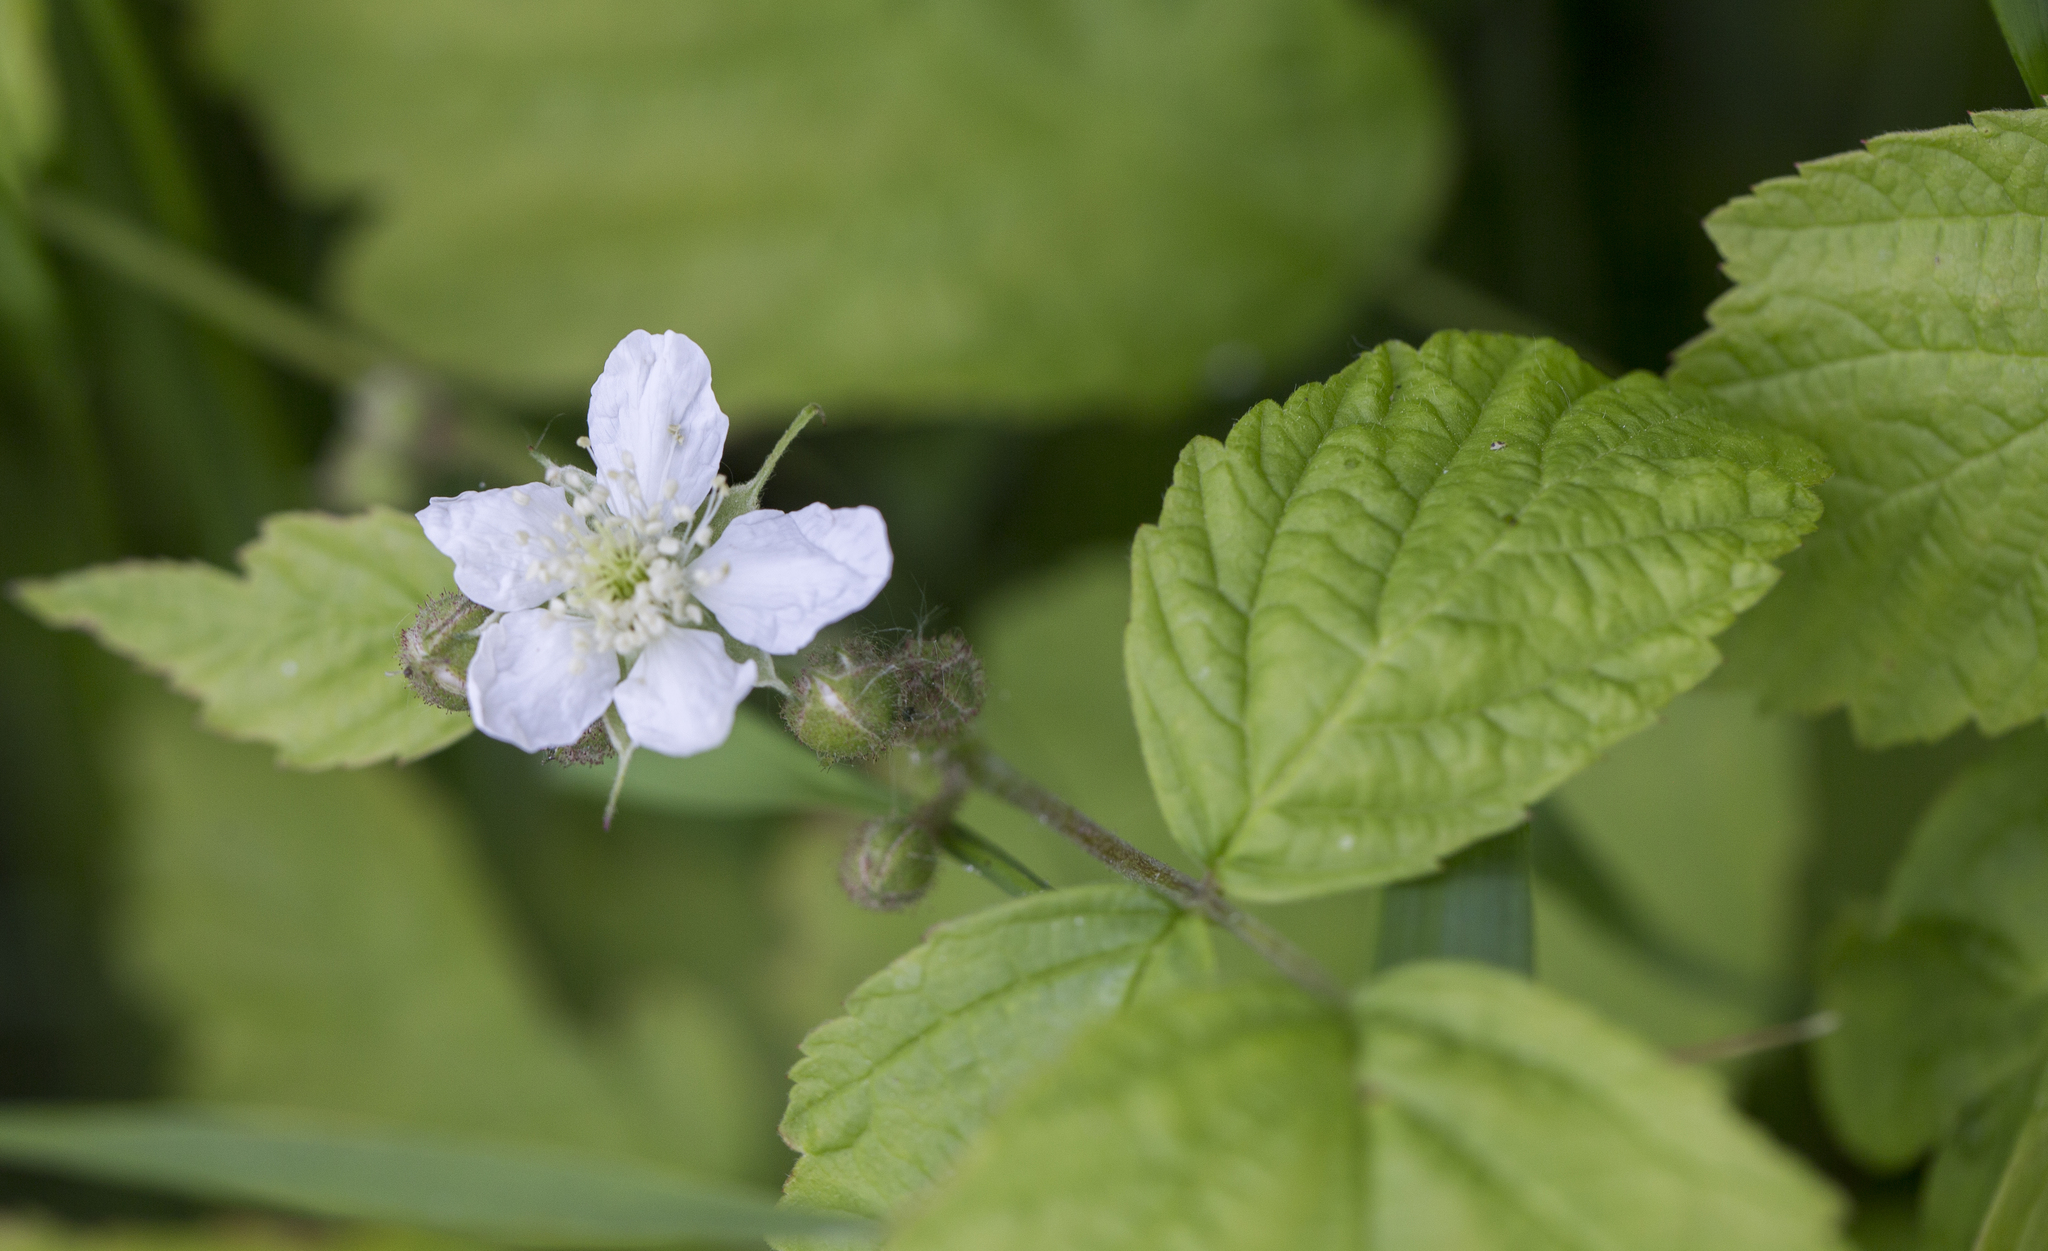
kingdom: Plantae
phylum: Tracheophyta
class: Magnoliopsida
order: Rosales
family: Rosaceae
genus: Rubus
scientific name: Rubus caesius
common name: Dewberry
